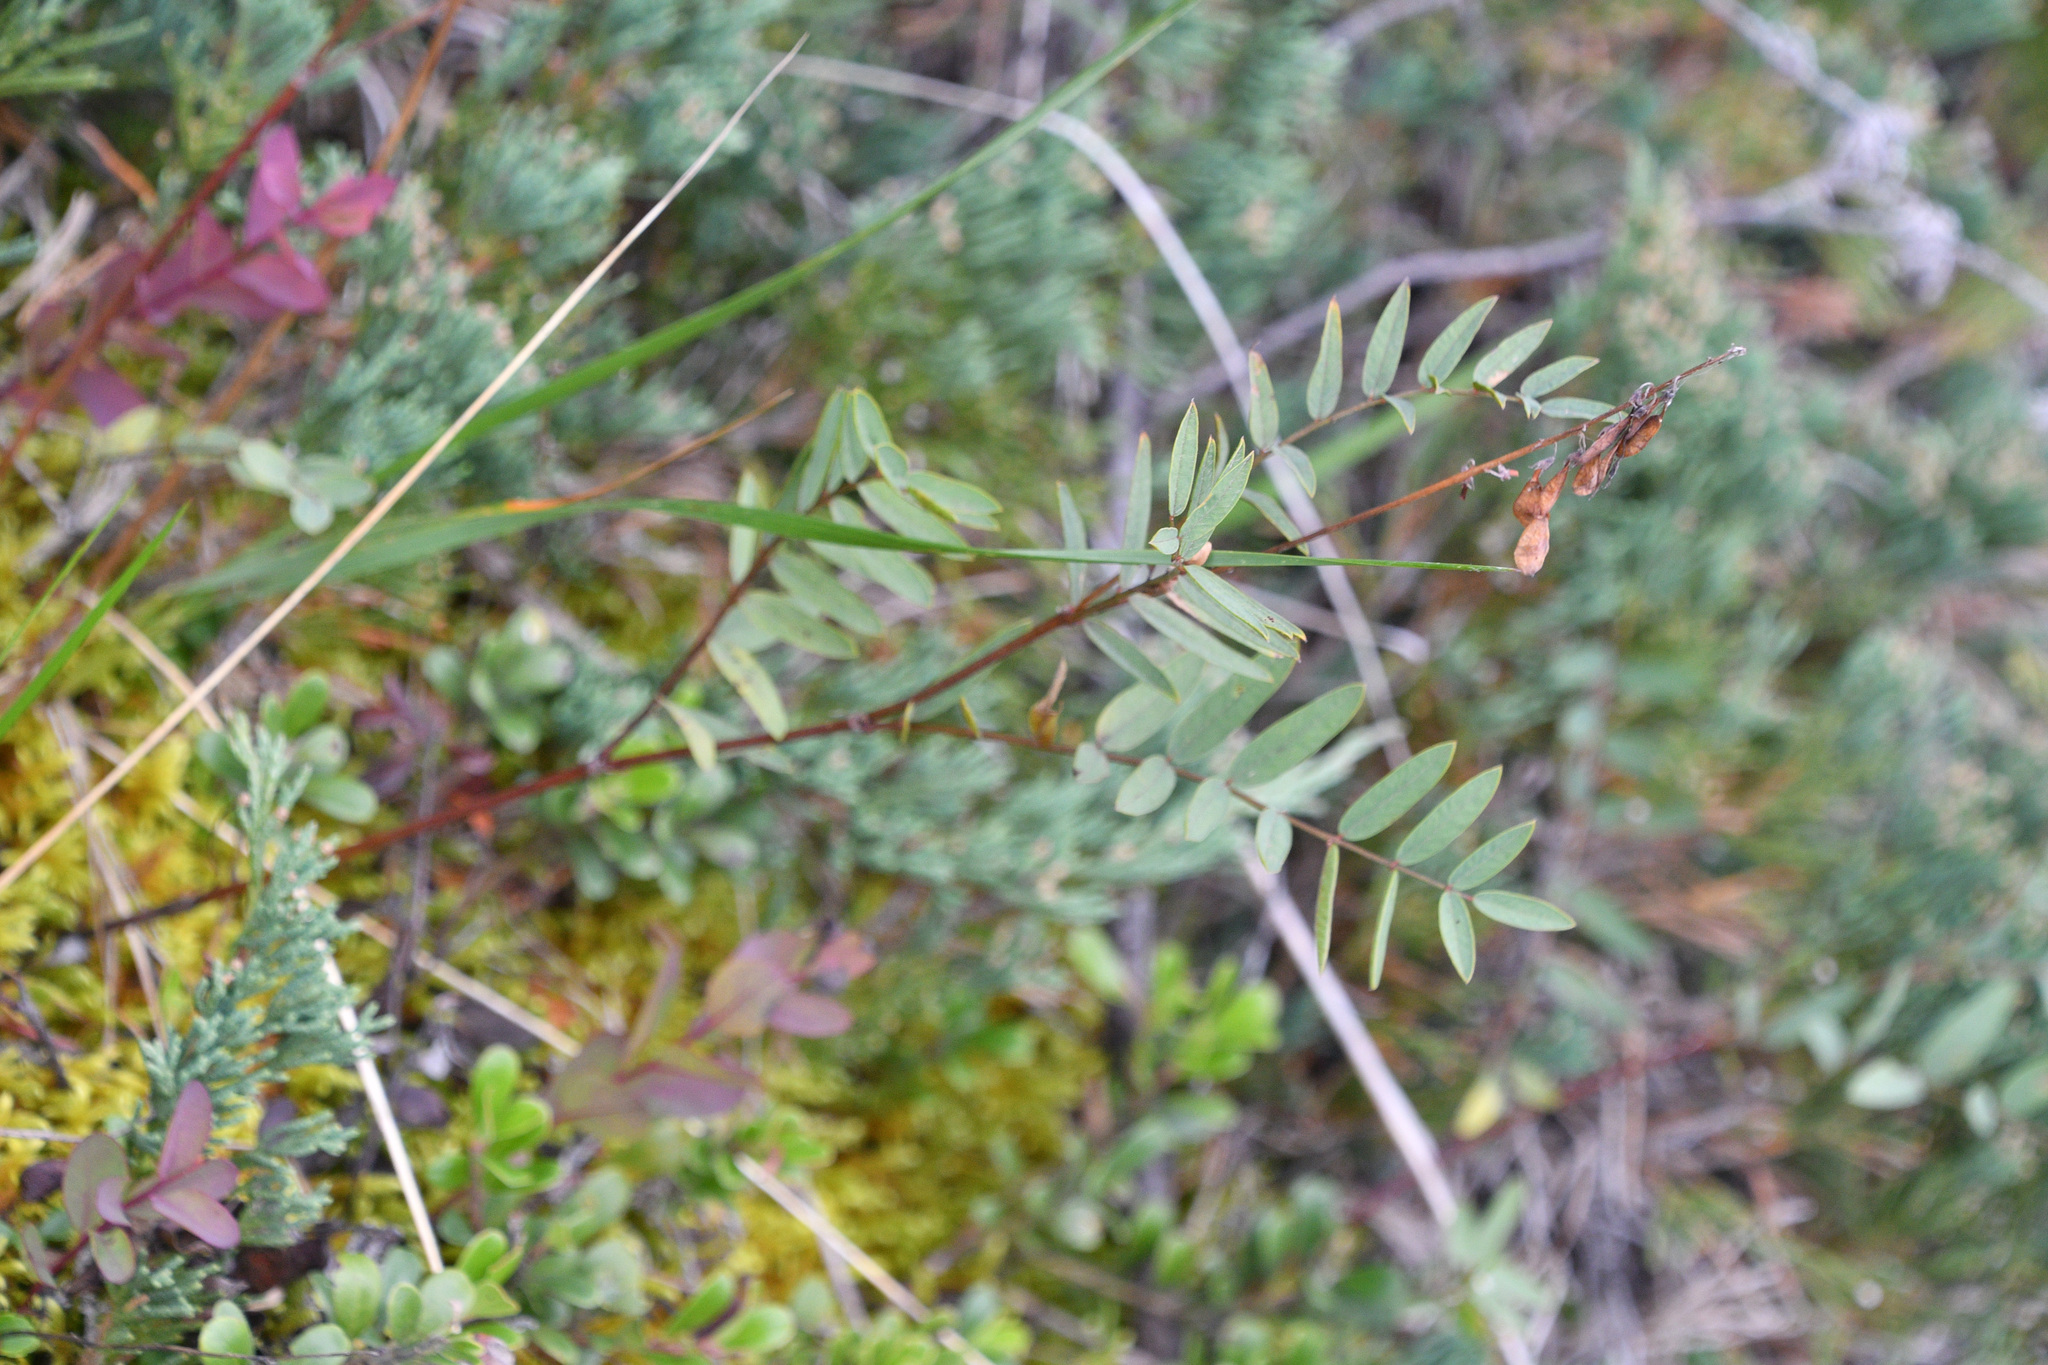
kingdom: Plantae
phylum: Tracheophyta
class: Magnoliopsida
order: Fabales
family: Fabaceae
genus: Hedysarum
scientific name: Hedysarum alpinum
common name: Alpine sweet-vetch
